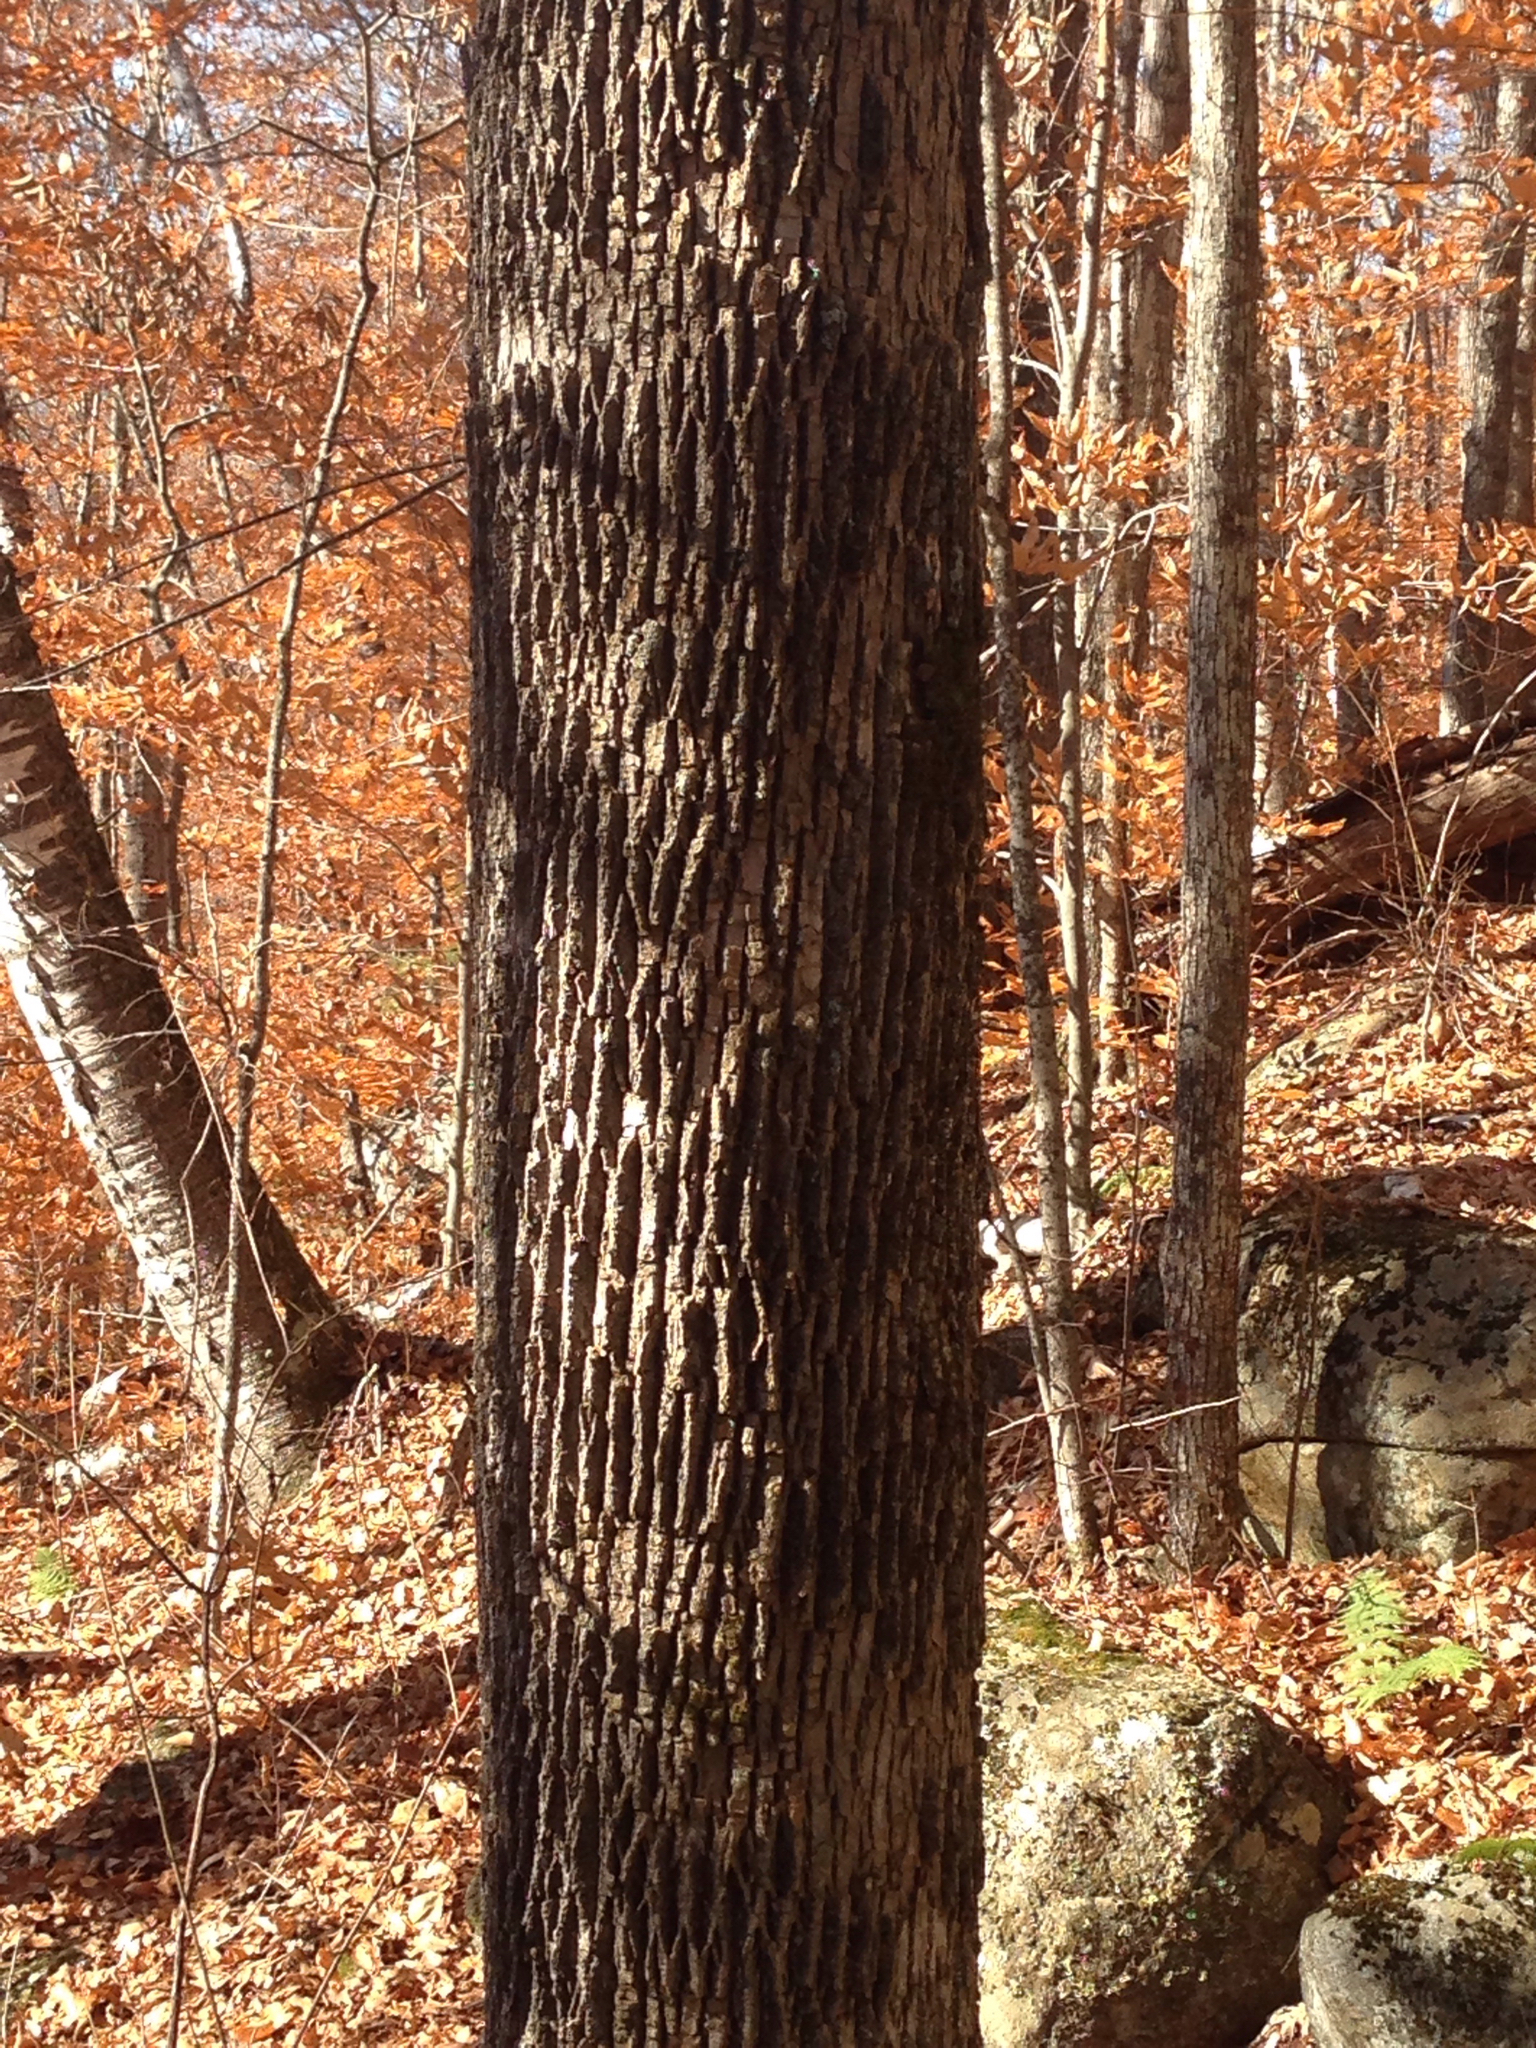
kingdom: Plantae
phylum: Tracheophyta
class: Magnoliopsida
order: Lamiales
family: Oleaceae
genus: Fraxinus
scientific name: Fraxinus americana
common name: White ash
